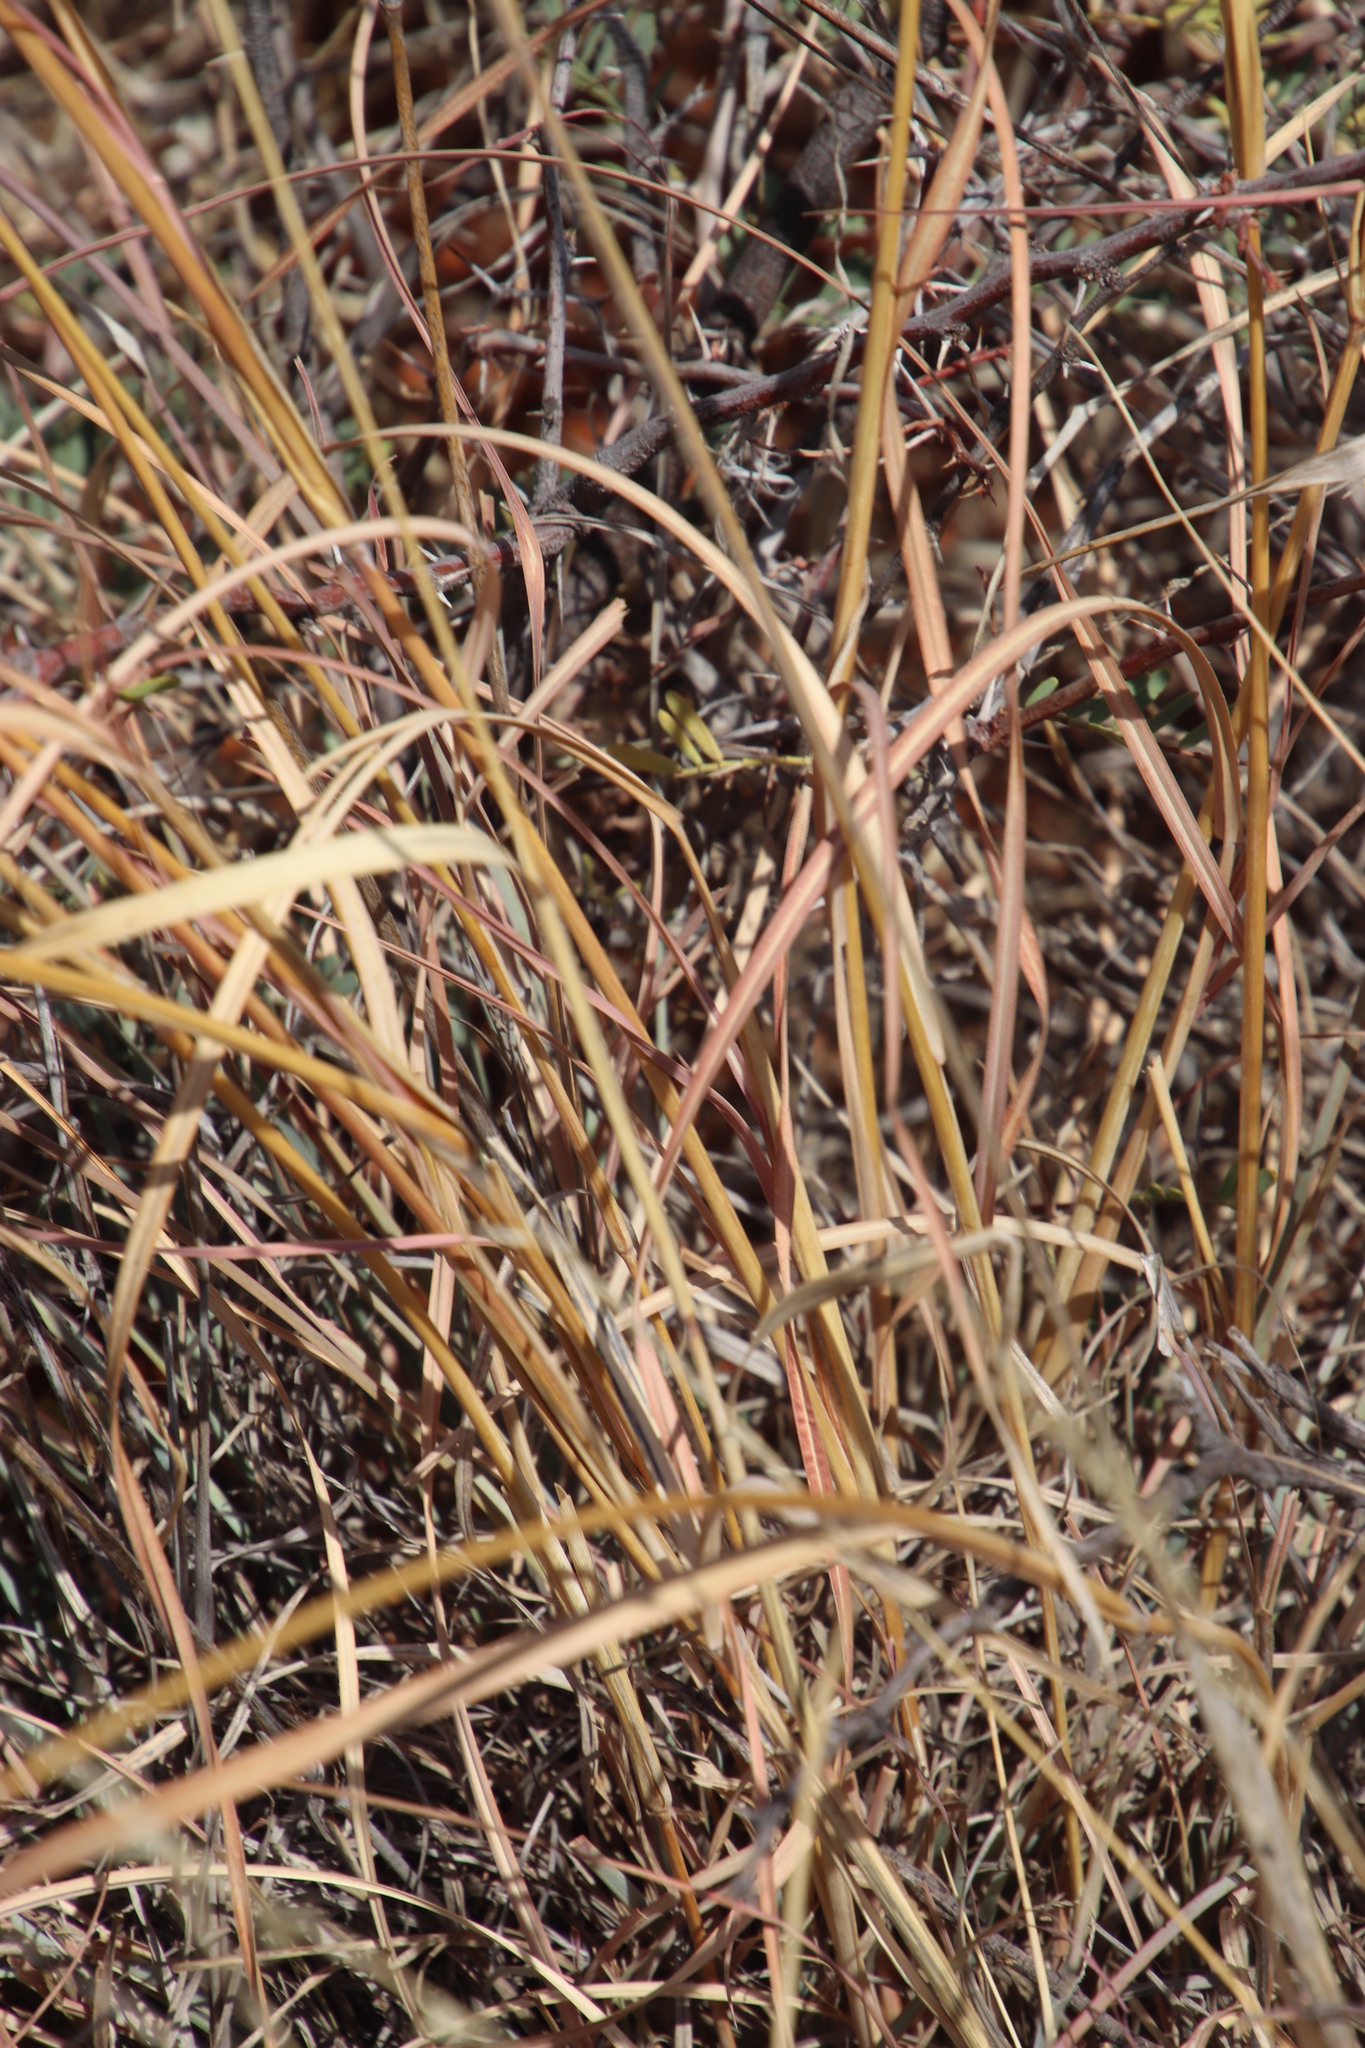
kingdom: Plantae
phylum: Tracheophyta
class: Liliopsida
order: Poales
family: Poaceae
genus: Themeda
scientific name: Themeda triandra
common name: Kangaroo grass
